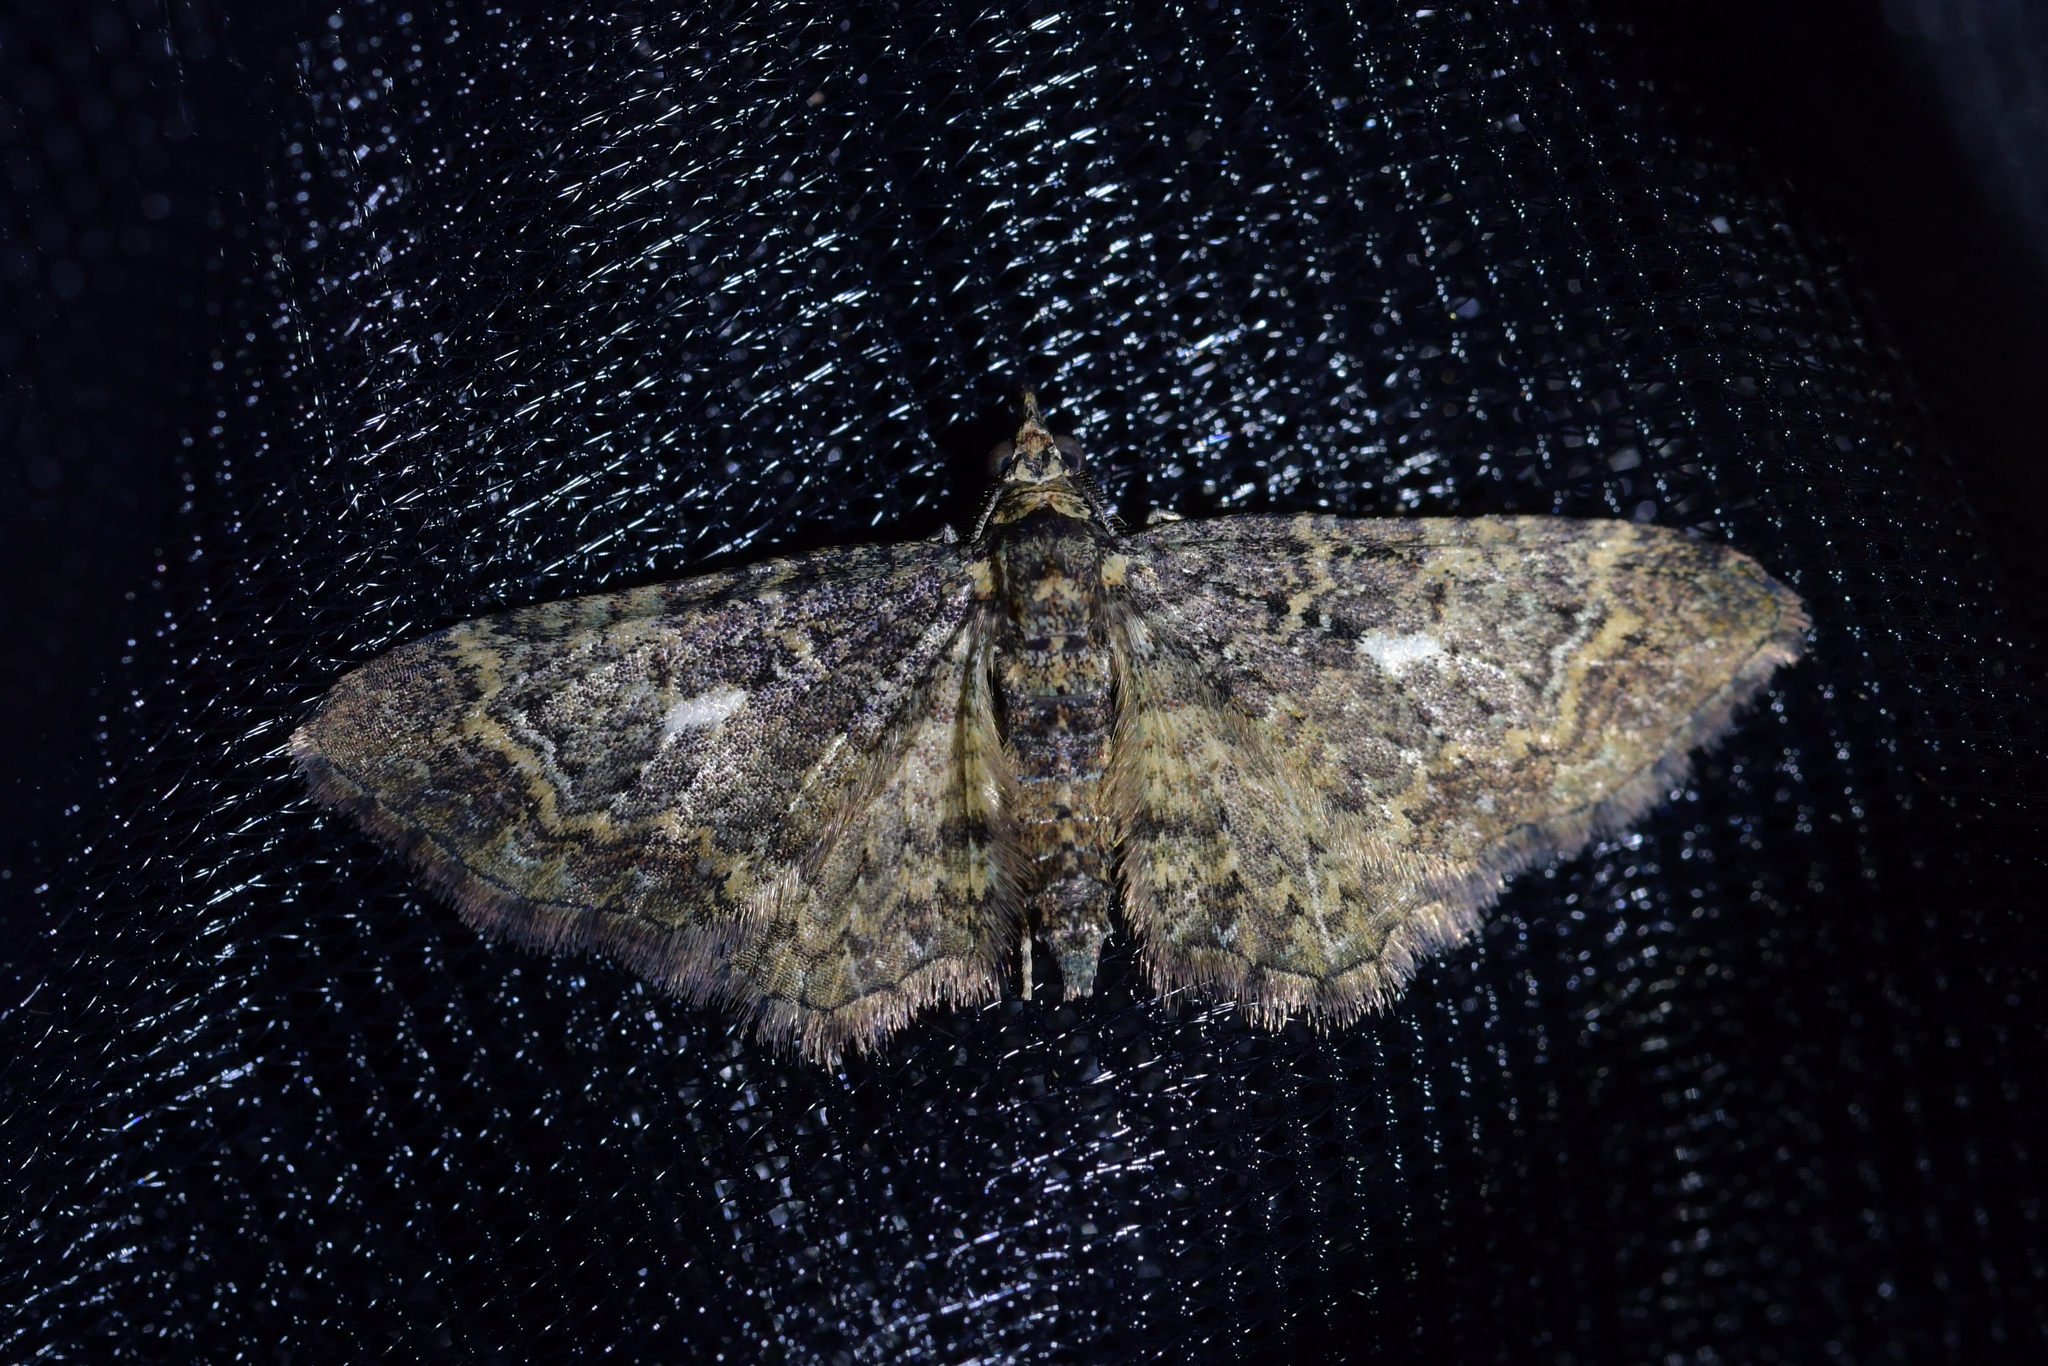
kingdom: Animalia
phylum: Arthropoda
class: Insecta
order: Lepidoptera
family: Geometridae
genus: Pasiphila
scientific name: Pasiphila lunata
